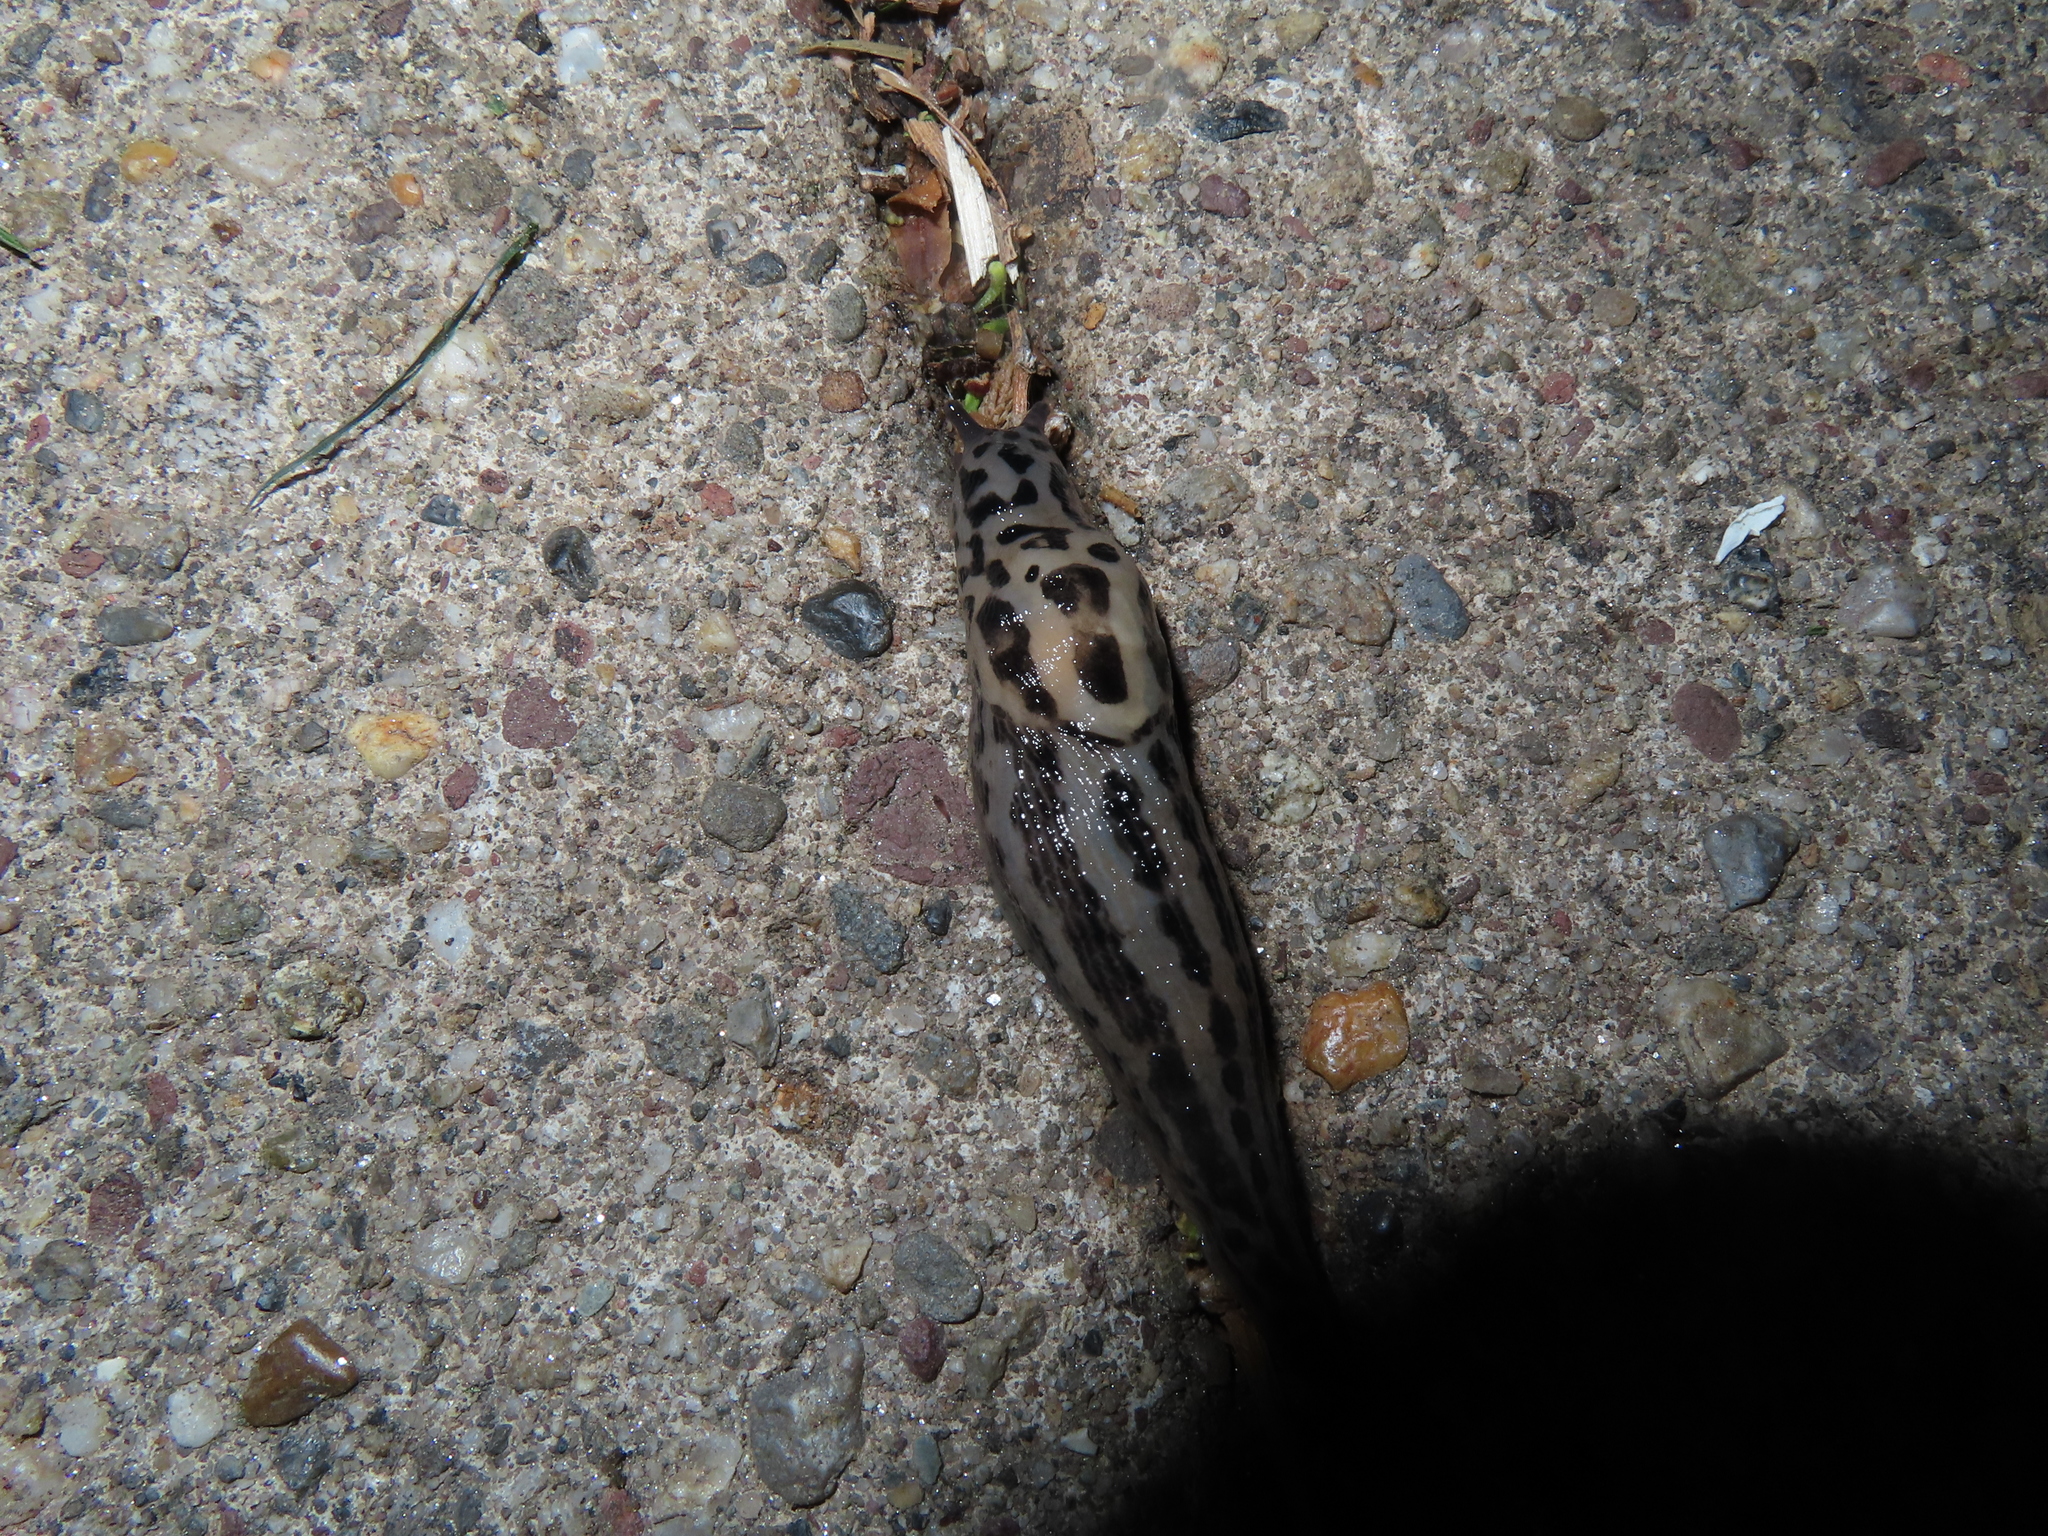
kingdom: Animalia
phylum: Mollusca
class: Gastropoda
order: Stylommatophora
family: Limacidae
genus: Limax
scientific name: Limax maximus
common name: Great grey slug
